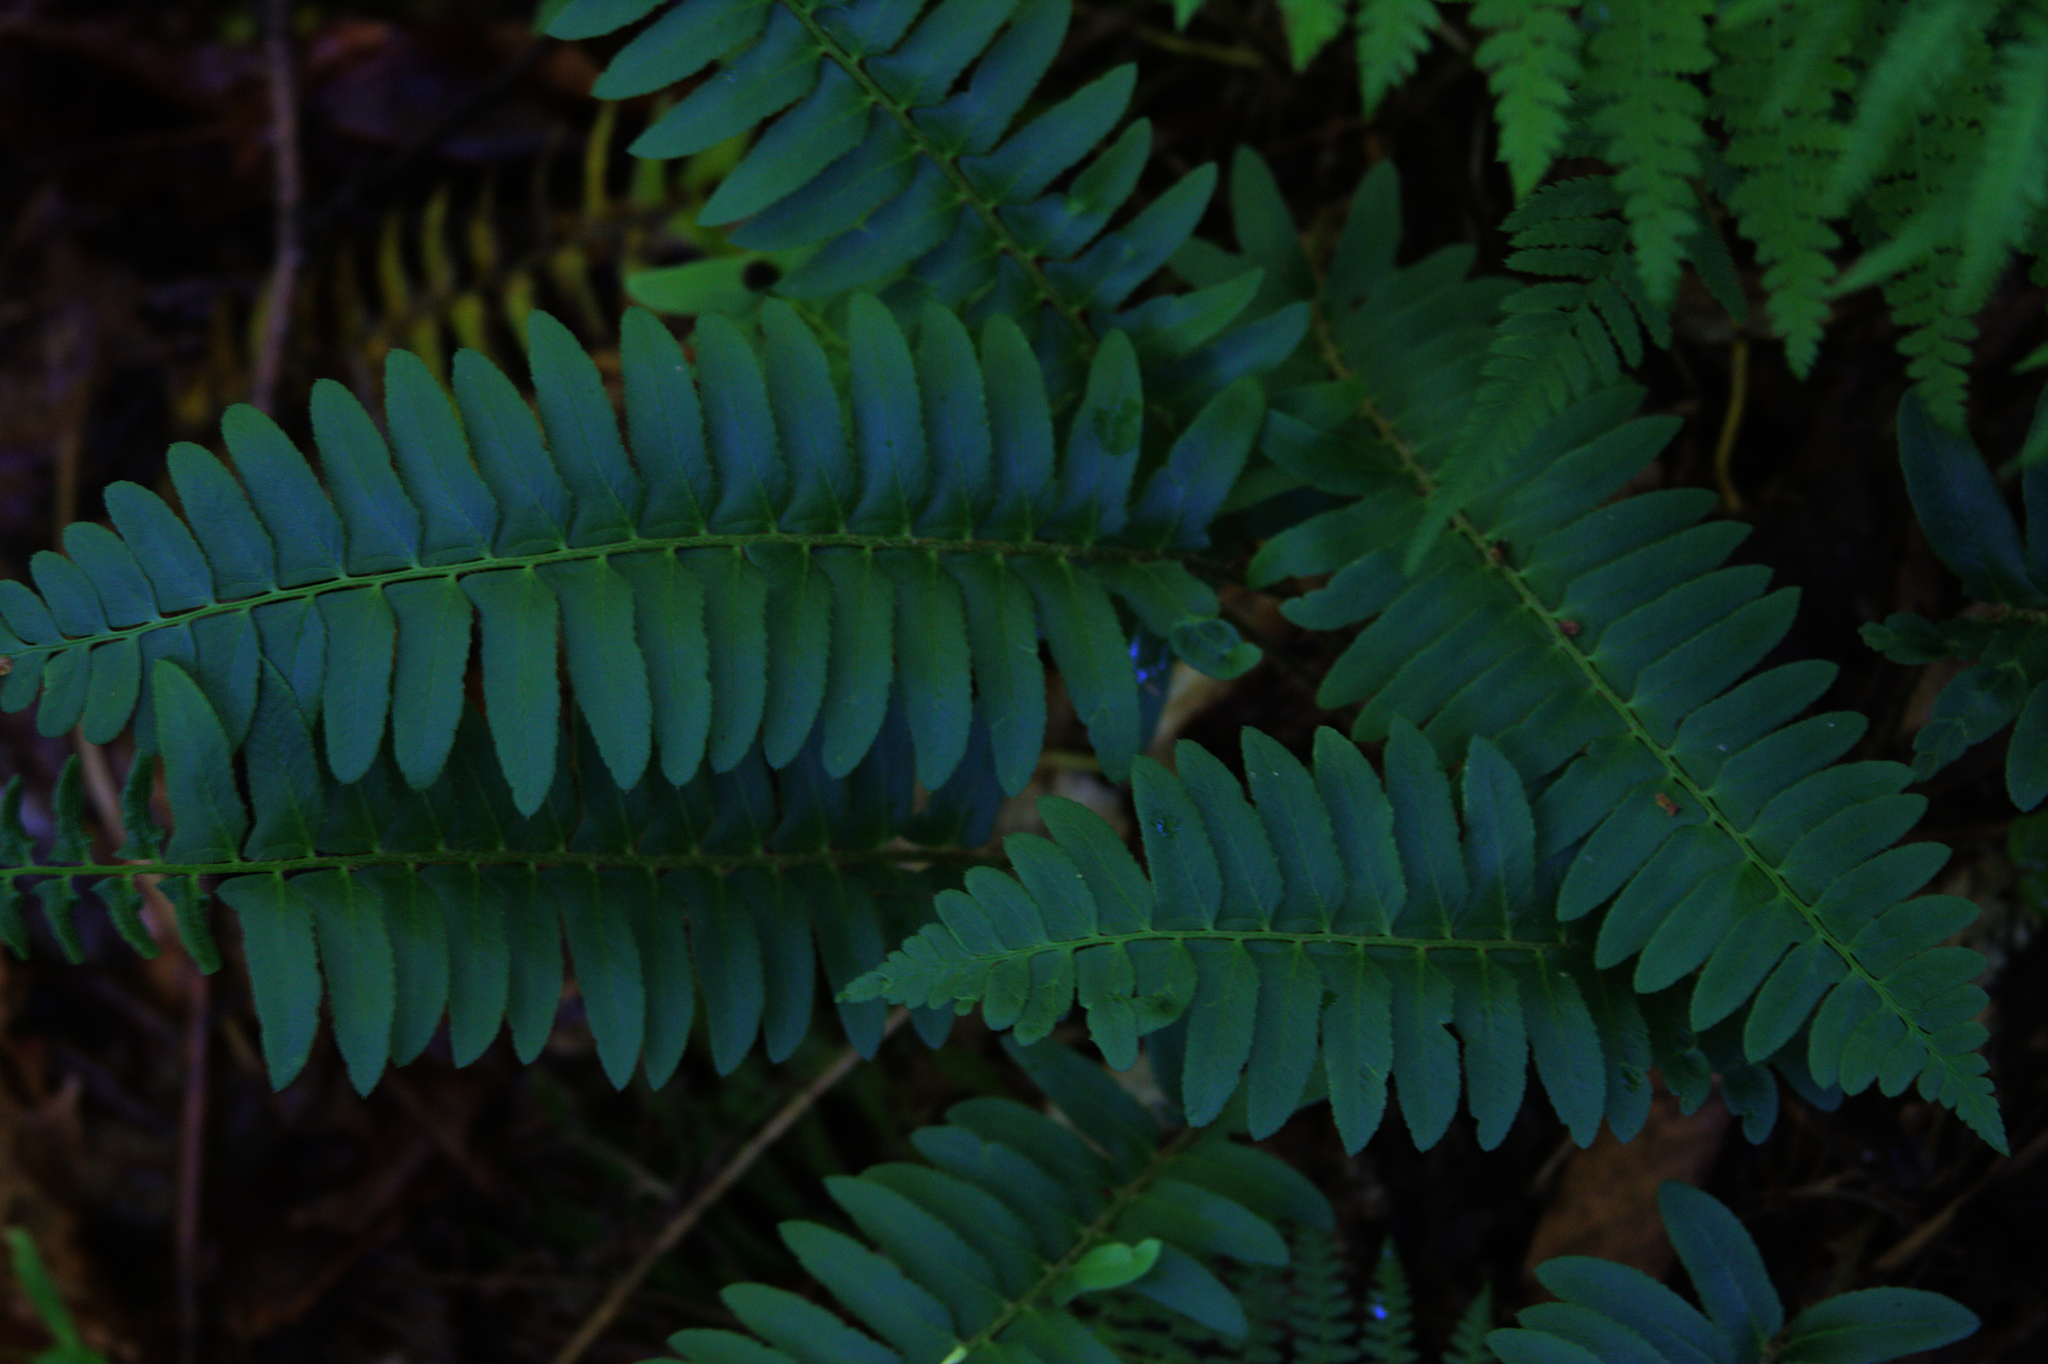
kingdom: Plantae
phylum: Tracheophyta
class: Polypodiopsida
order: Polypodiales
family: Dryopteridaceae
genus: Polystichum
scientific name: Polystichum acrostichoides
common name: Christmas fern
